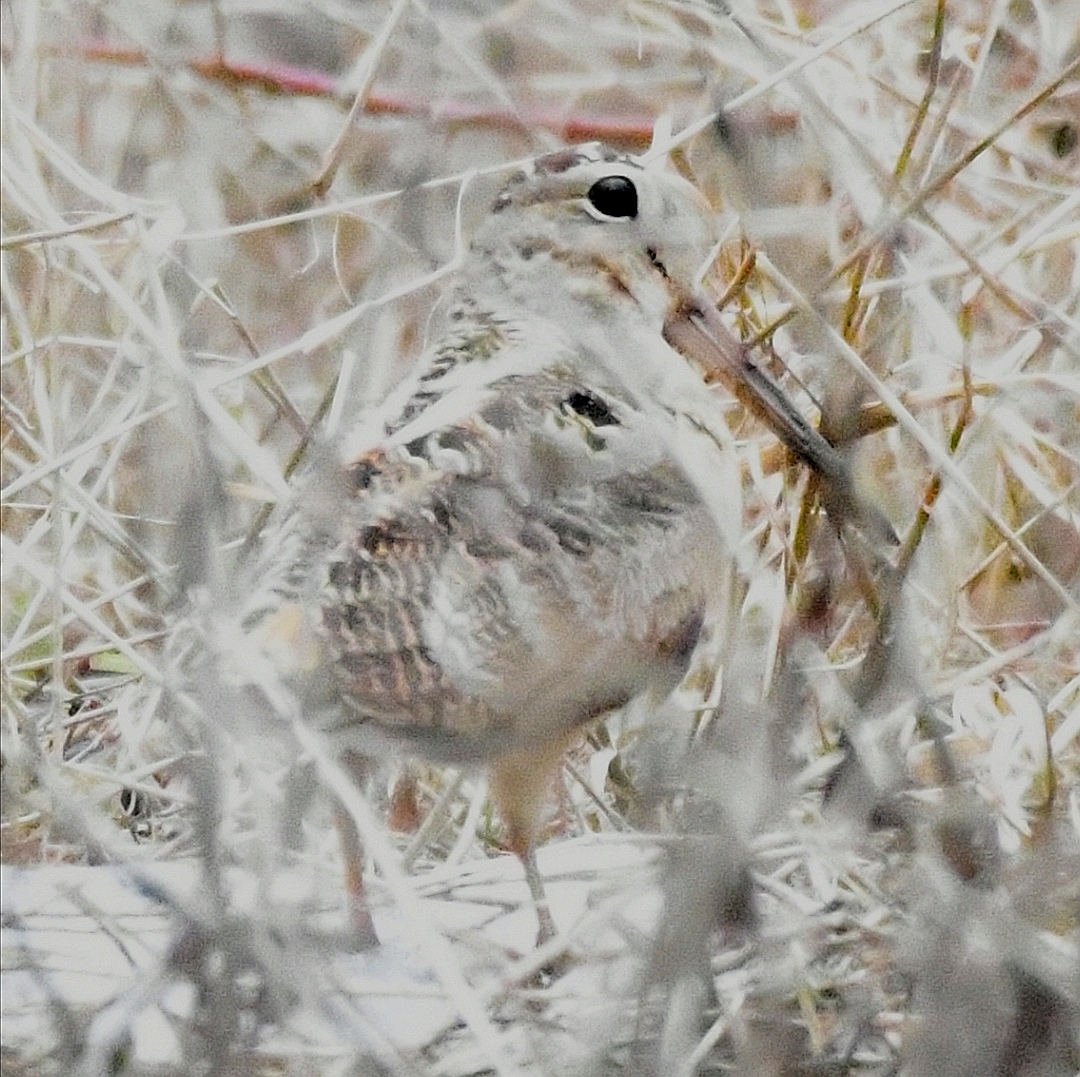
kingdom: Animalia
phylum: Chordata
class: Aves
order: Charadriiformes
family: Scolopacidae
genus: Scolopax
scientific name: Scolopax minor
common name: American woodcock
